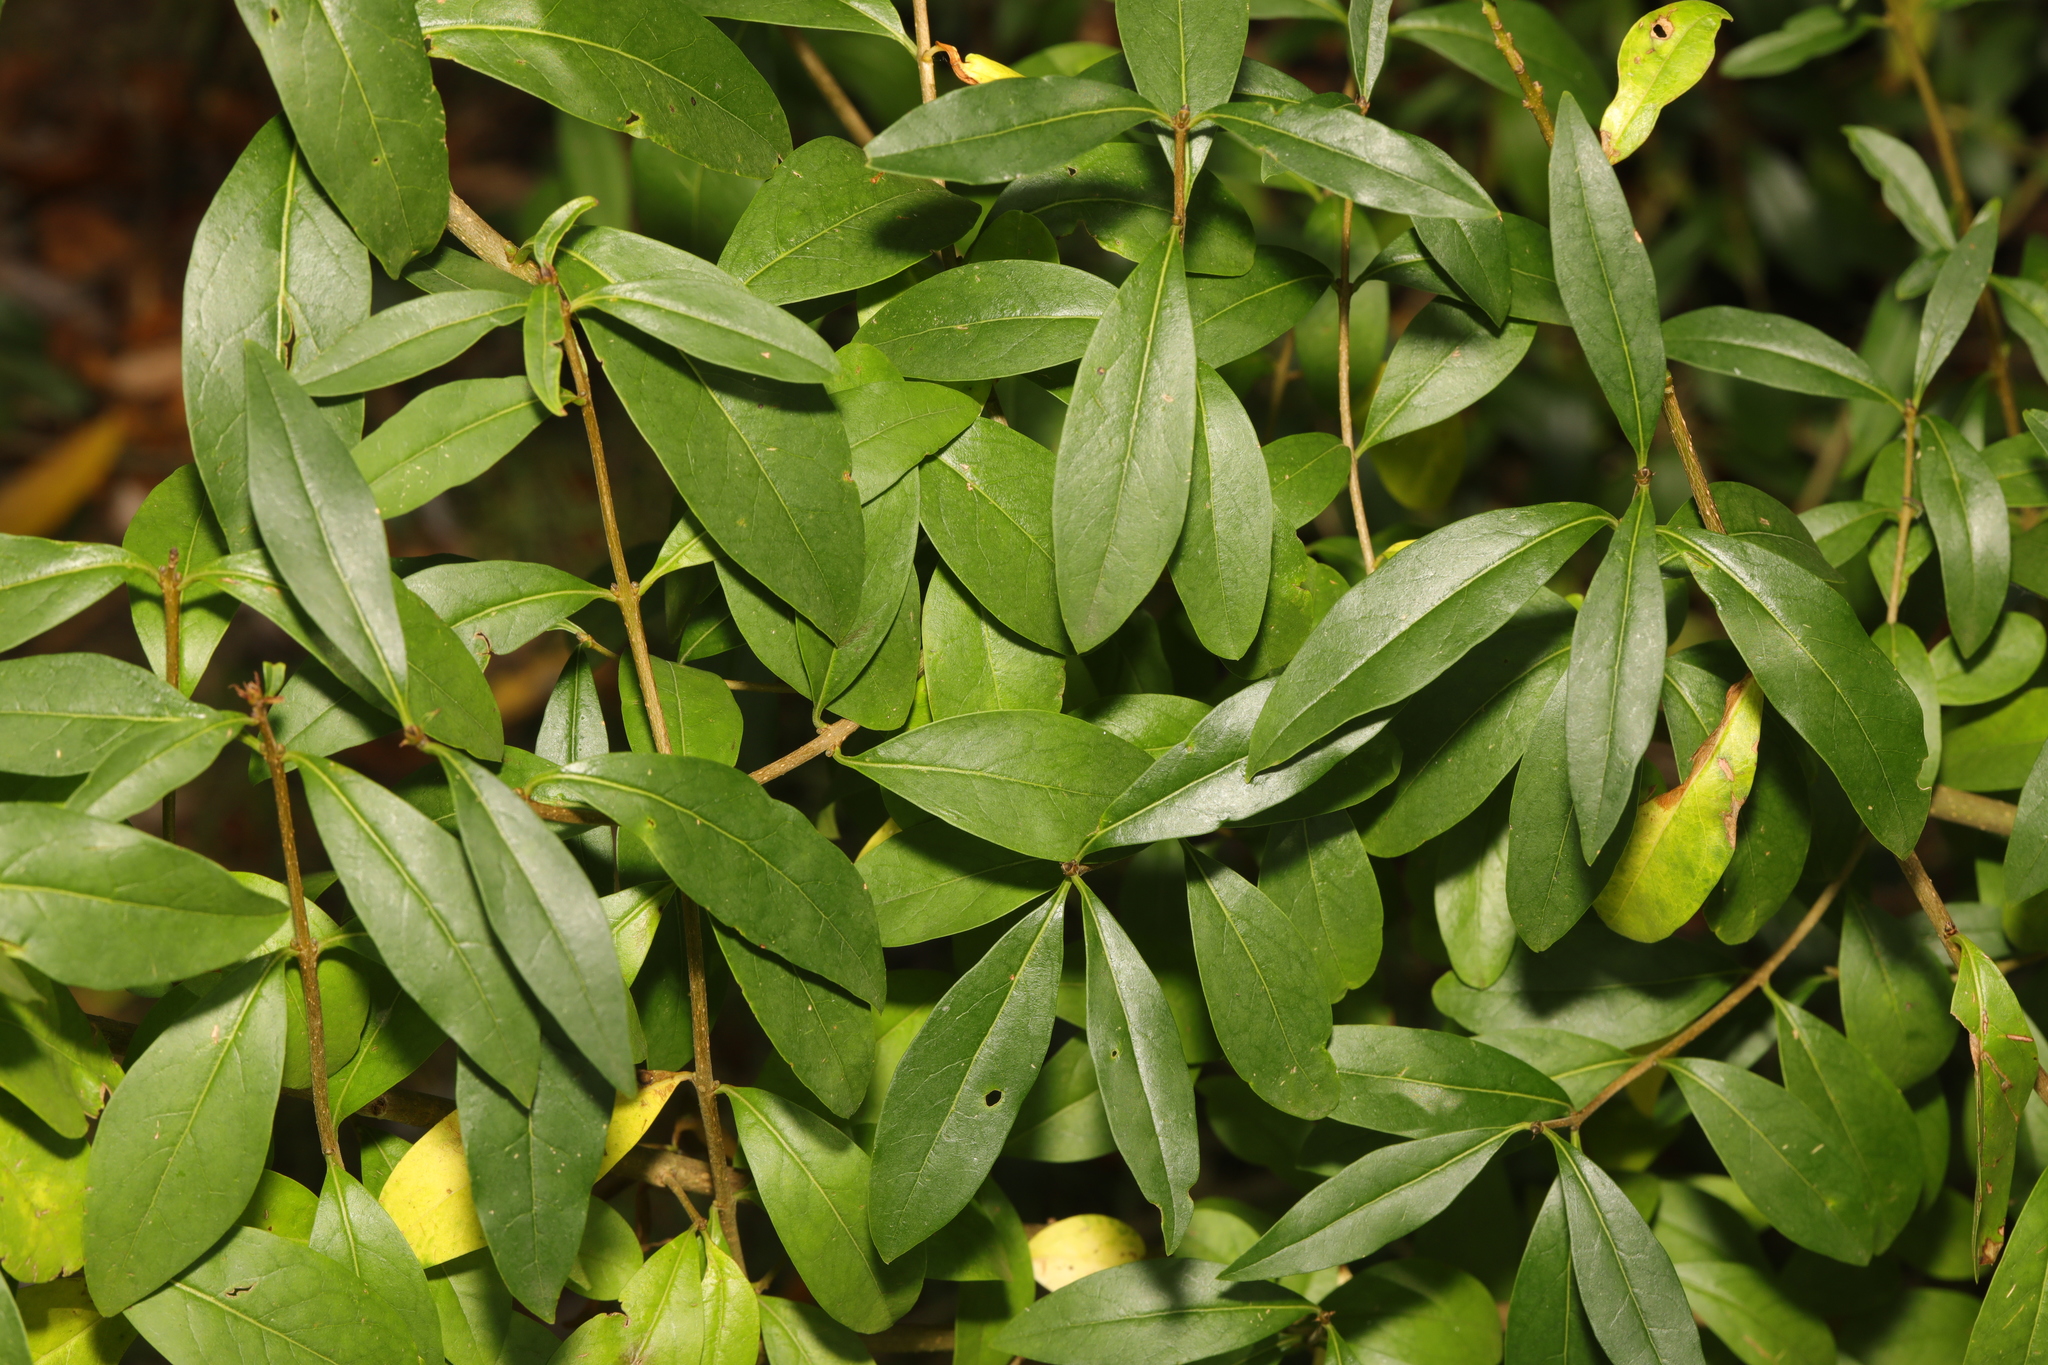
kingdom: Plantae
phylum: Tracheophyta
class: Magnoliopsida
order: Lamiales
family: Oleaceae
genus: Ligustrum
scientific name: Ligustrum vulgare
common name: Wild privet
